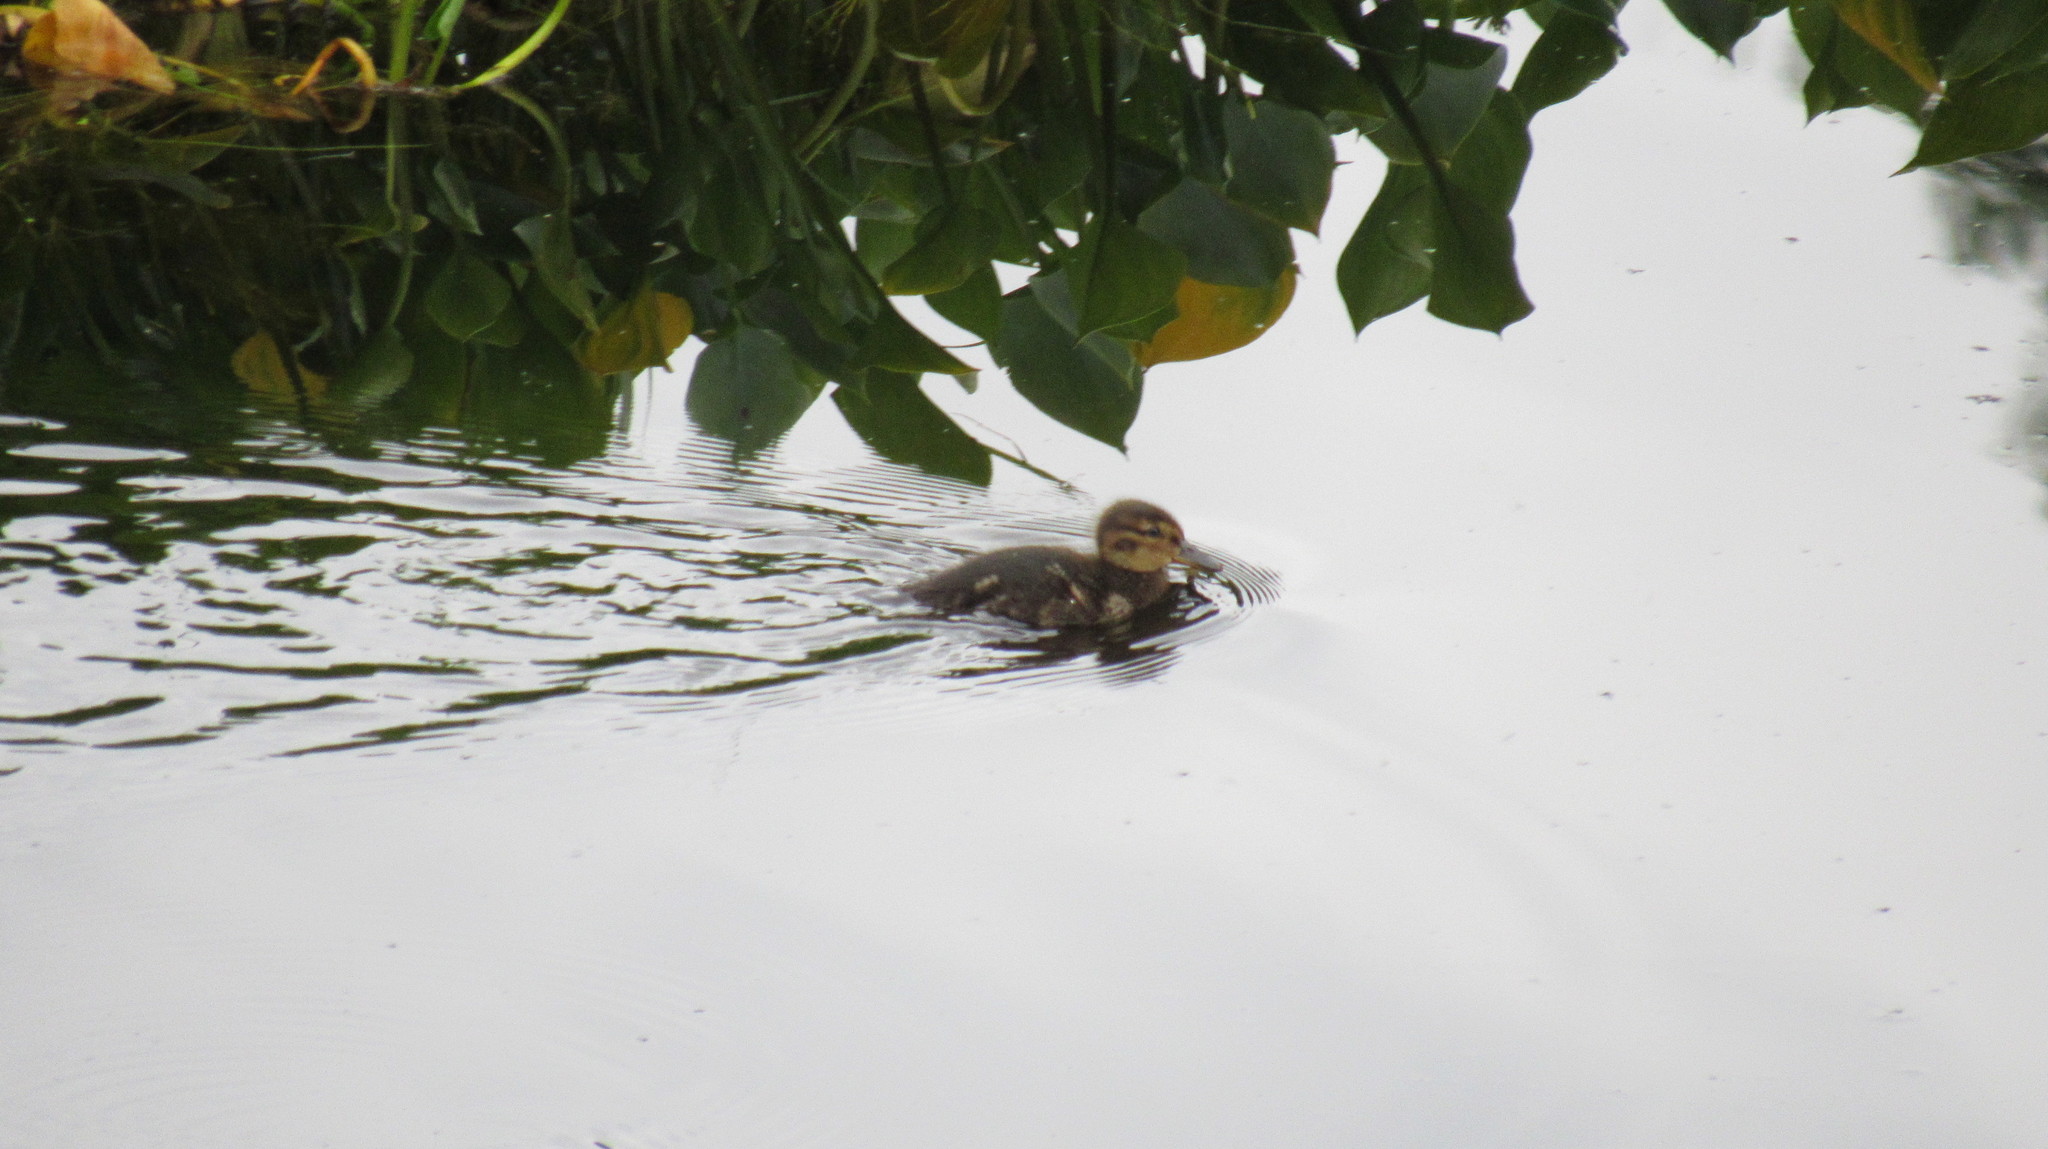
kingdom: Animalia
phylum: Chordata
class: Aves
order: Anseriformes
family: Anatidae
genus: Anas
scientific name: Anas crecca
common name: Eurasian teal
